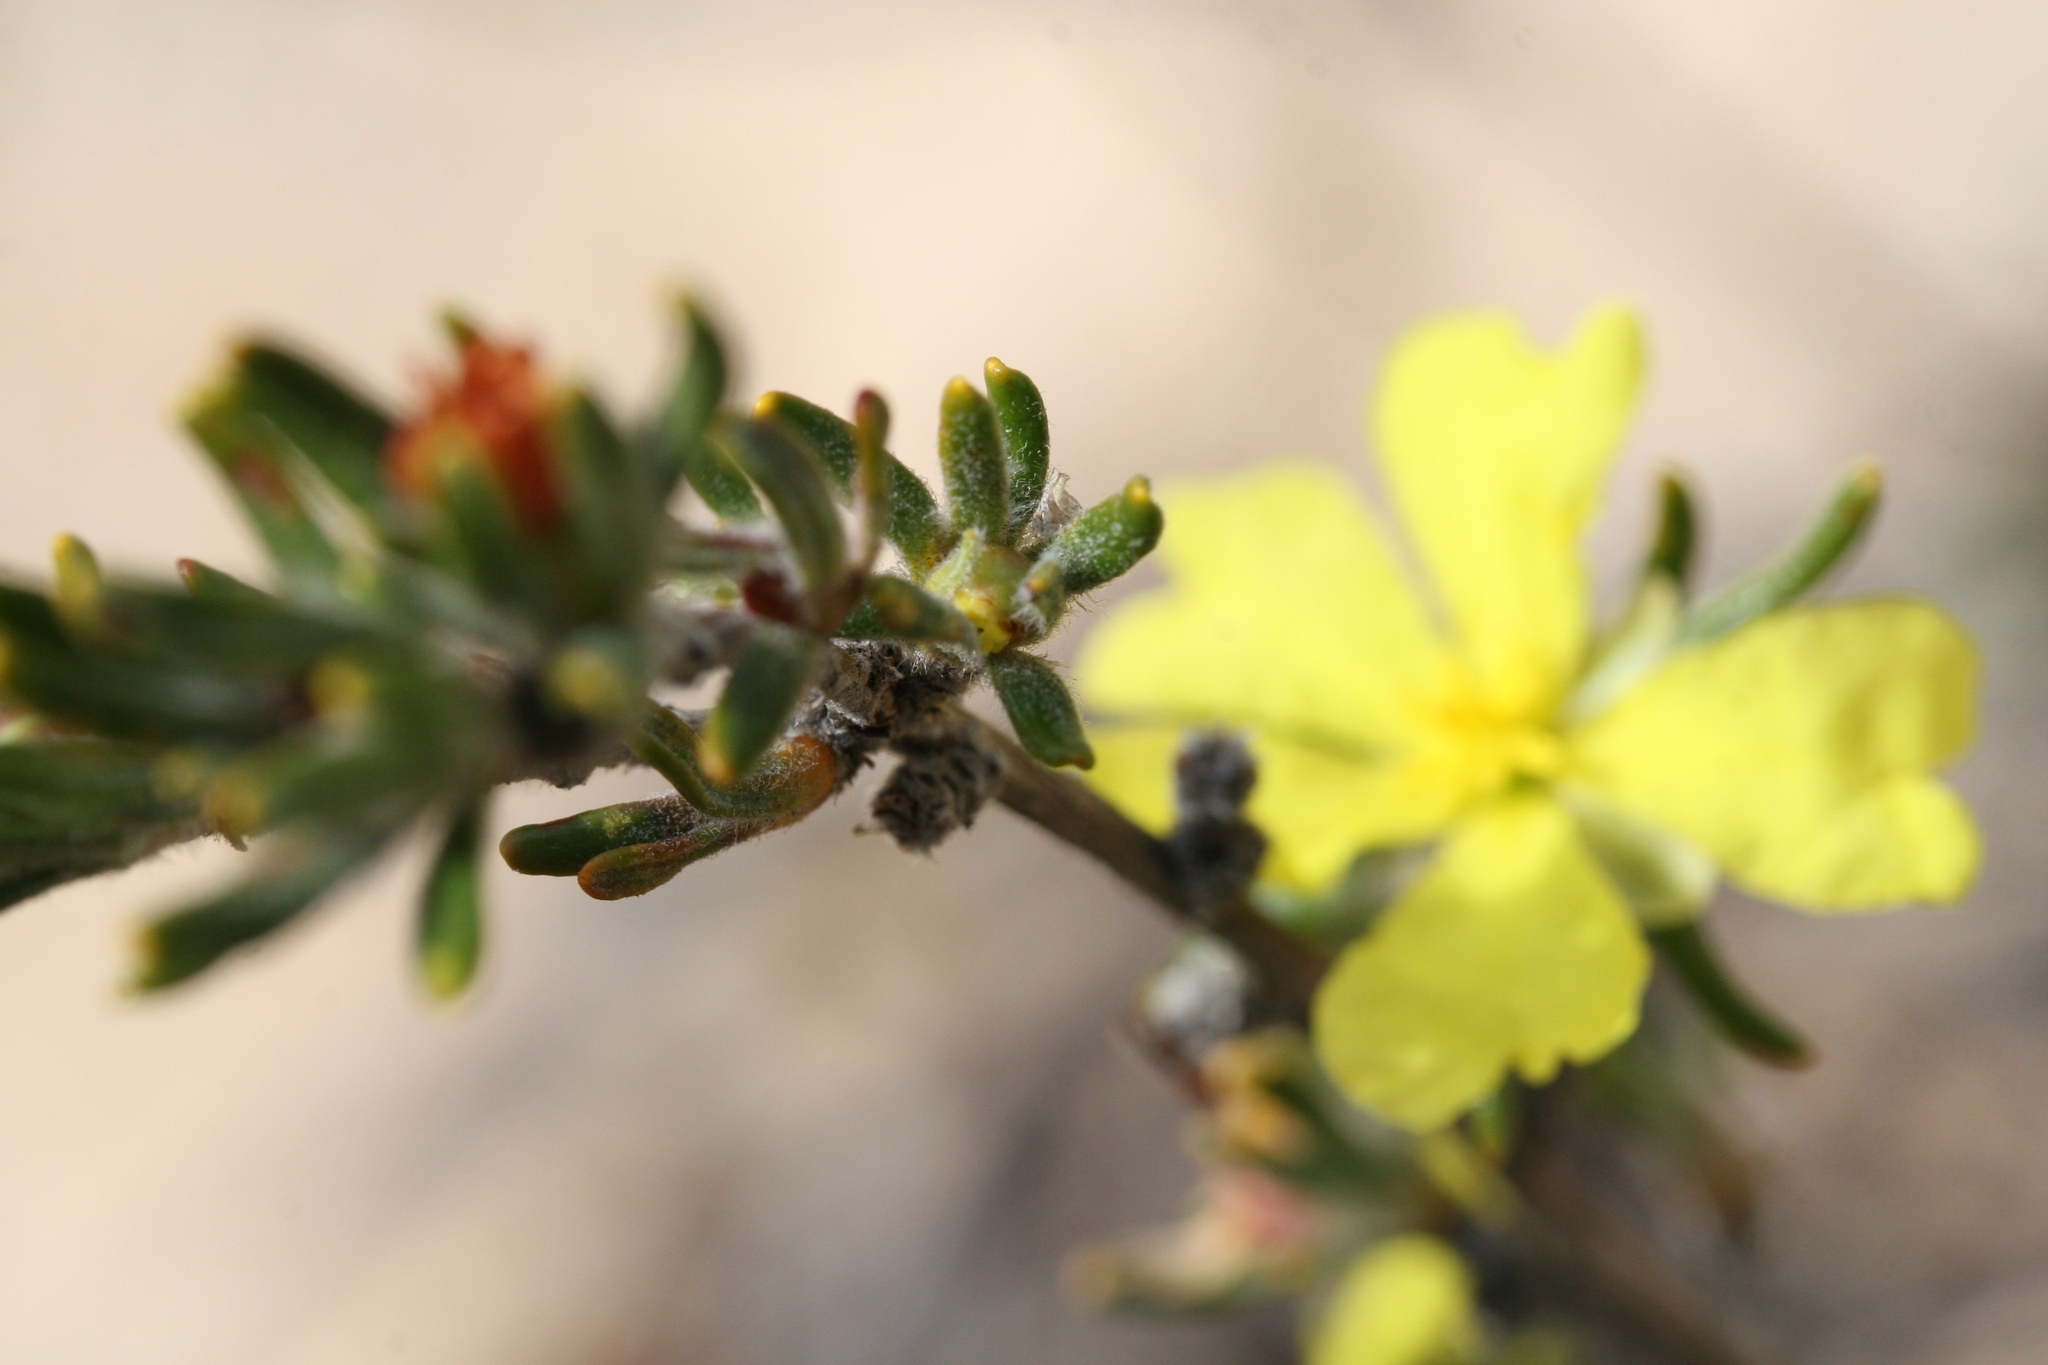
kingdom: Plantae
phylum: Tracheophyta
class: Magnoliopsida
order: Dilleniales
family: Dilleniaceae
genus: Hibbertia
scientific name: Hibbertia desmophylla
